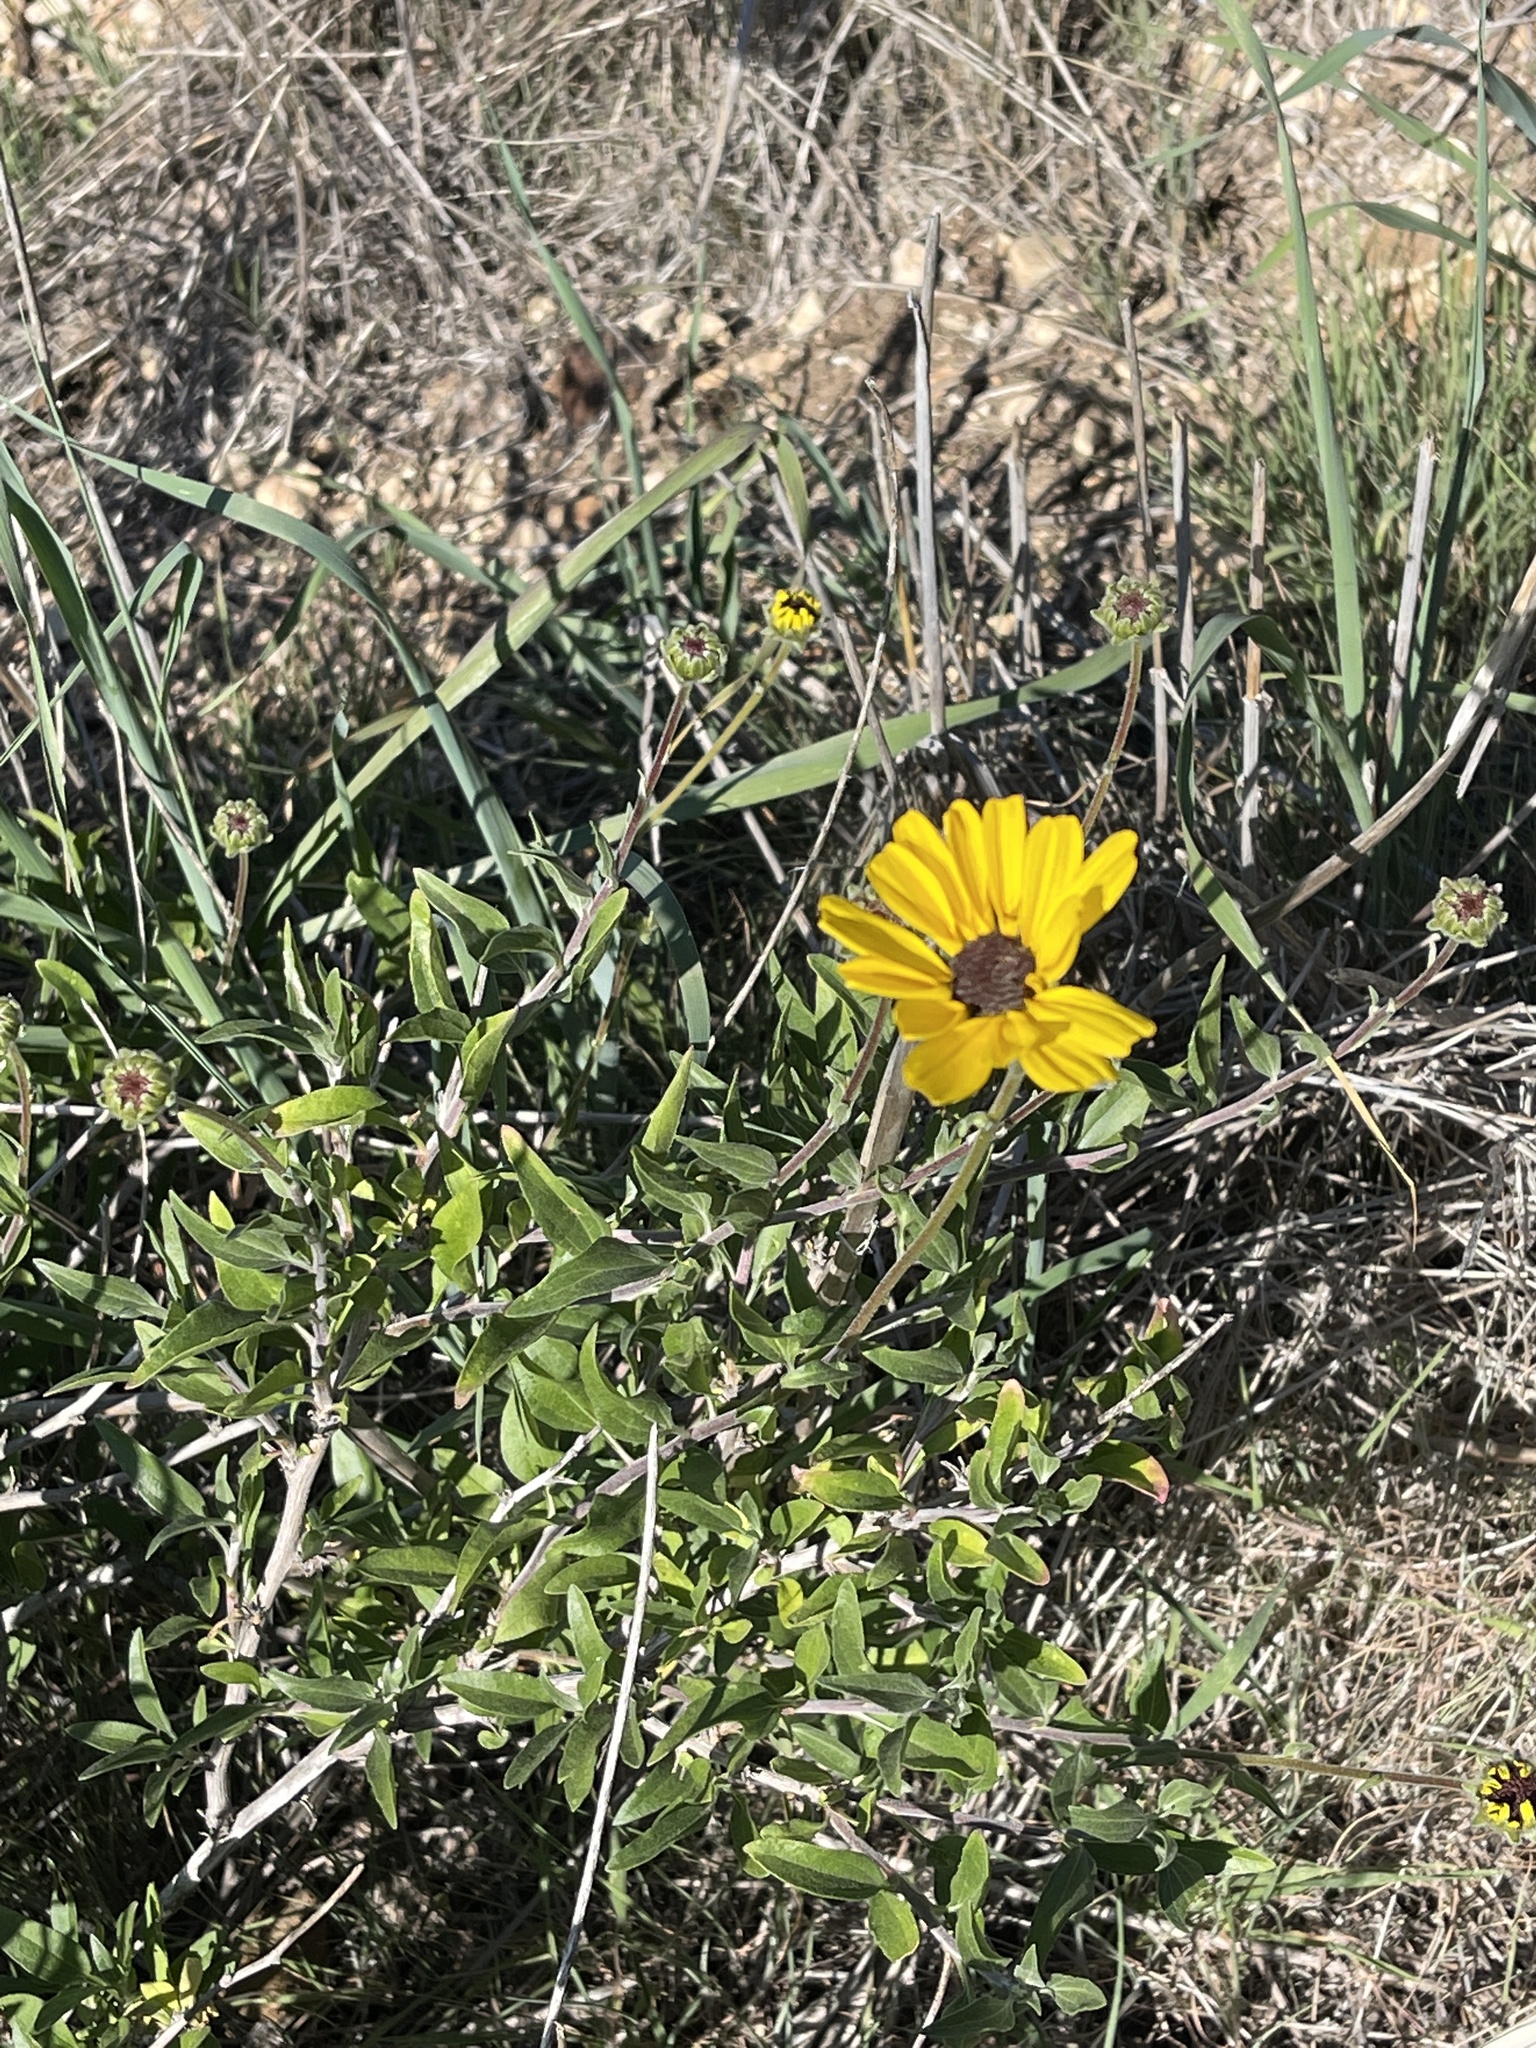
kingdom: Plantae
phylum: Tracheophyta
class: Magnoliopsida
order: Asterales
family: Asteraceae
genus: Encelia
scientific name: Encelia californica
